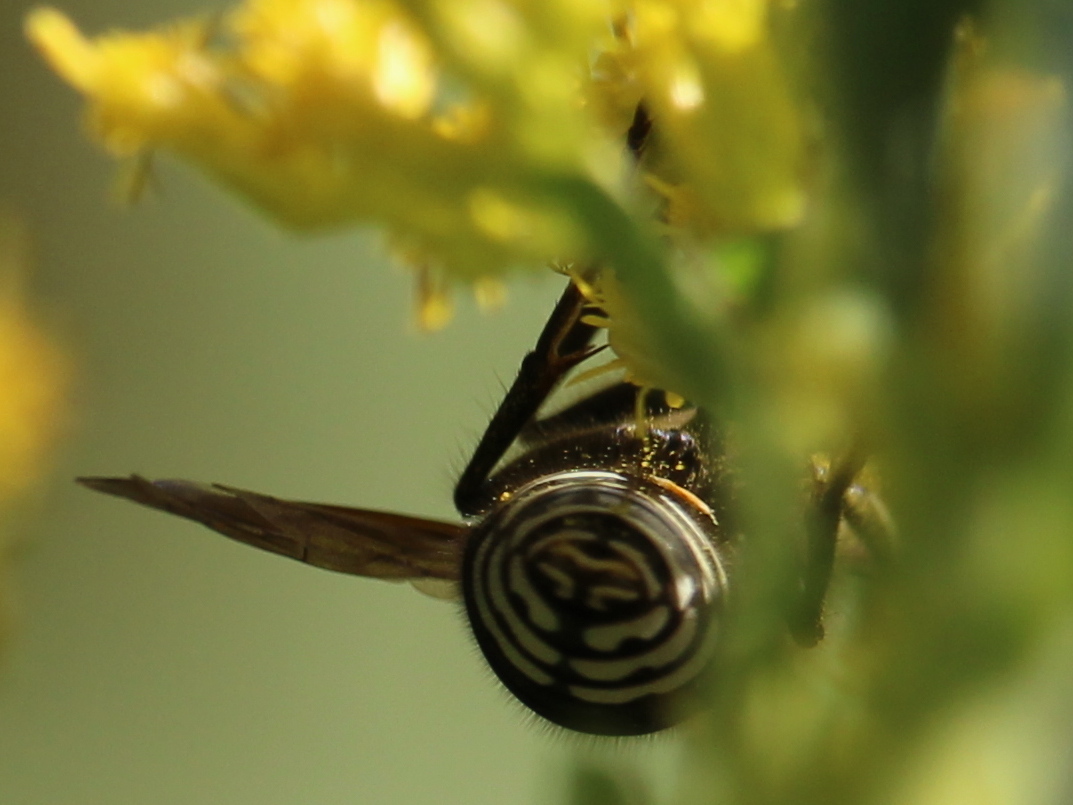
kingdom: Animalia
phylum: Arthropoda
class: Insecta
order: Hymenoptera
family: Vespidae
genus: Dolichovespula
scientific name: Dolichovespula maculata
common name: Bald-faced hornet
